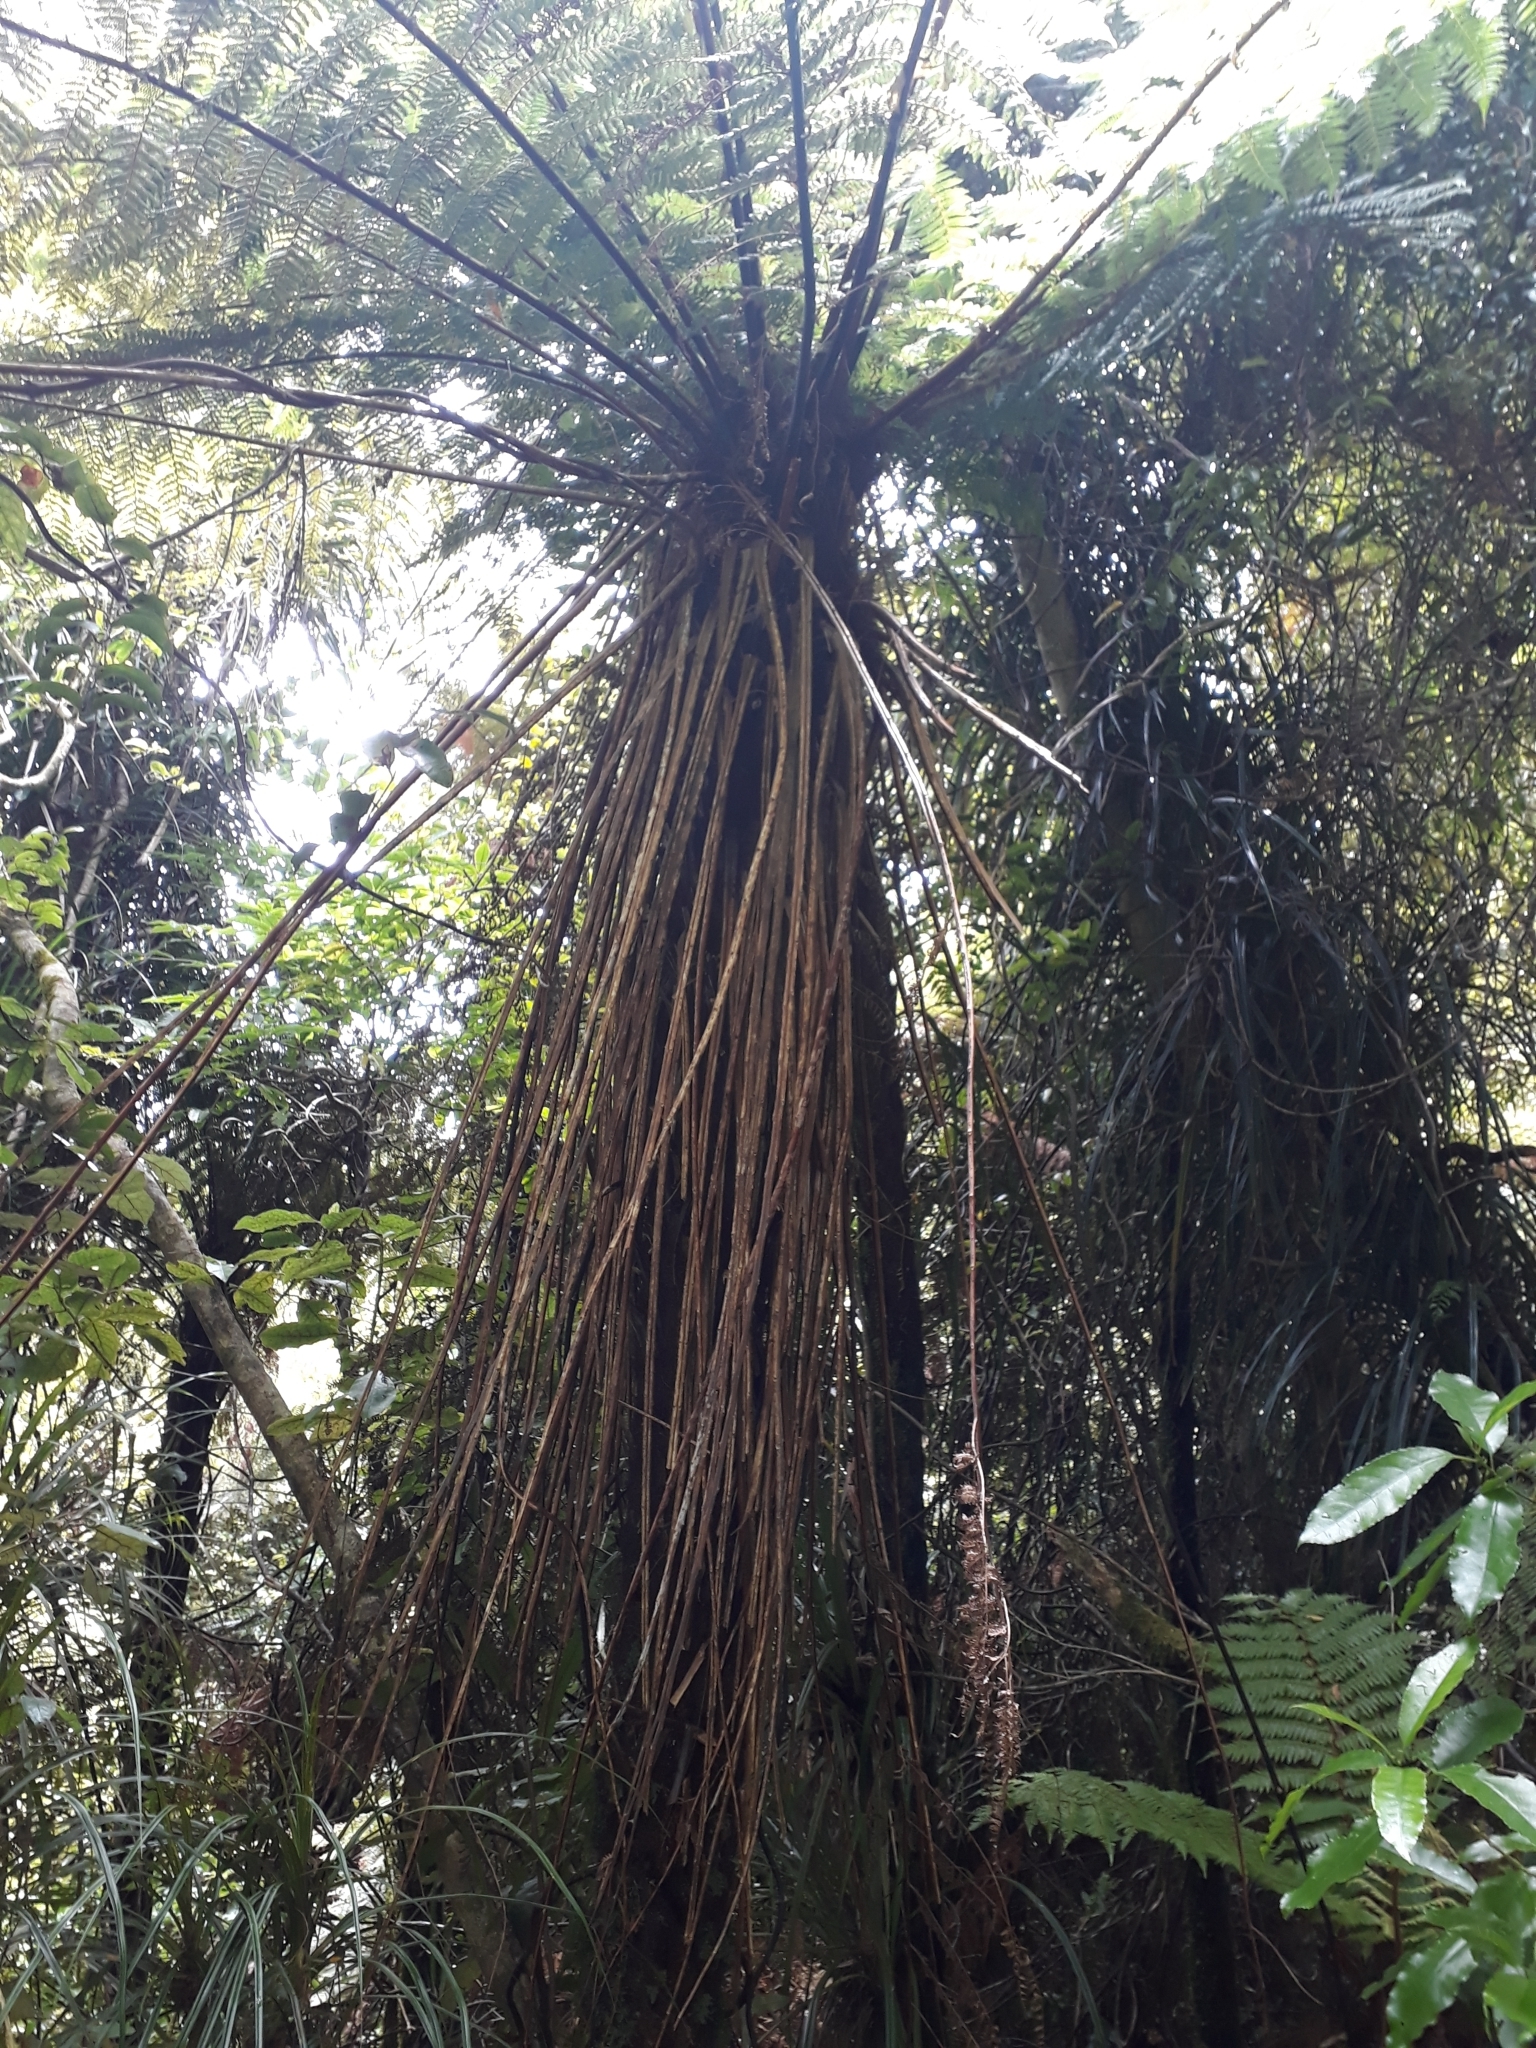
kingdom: Plantae
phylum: Tracheophyta
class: Polypodiopsida
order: Cyatheales
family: Cyatheaceae
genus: Alsophila
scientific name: Alsophila smithii
